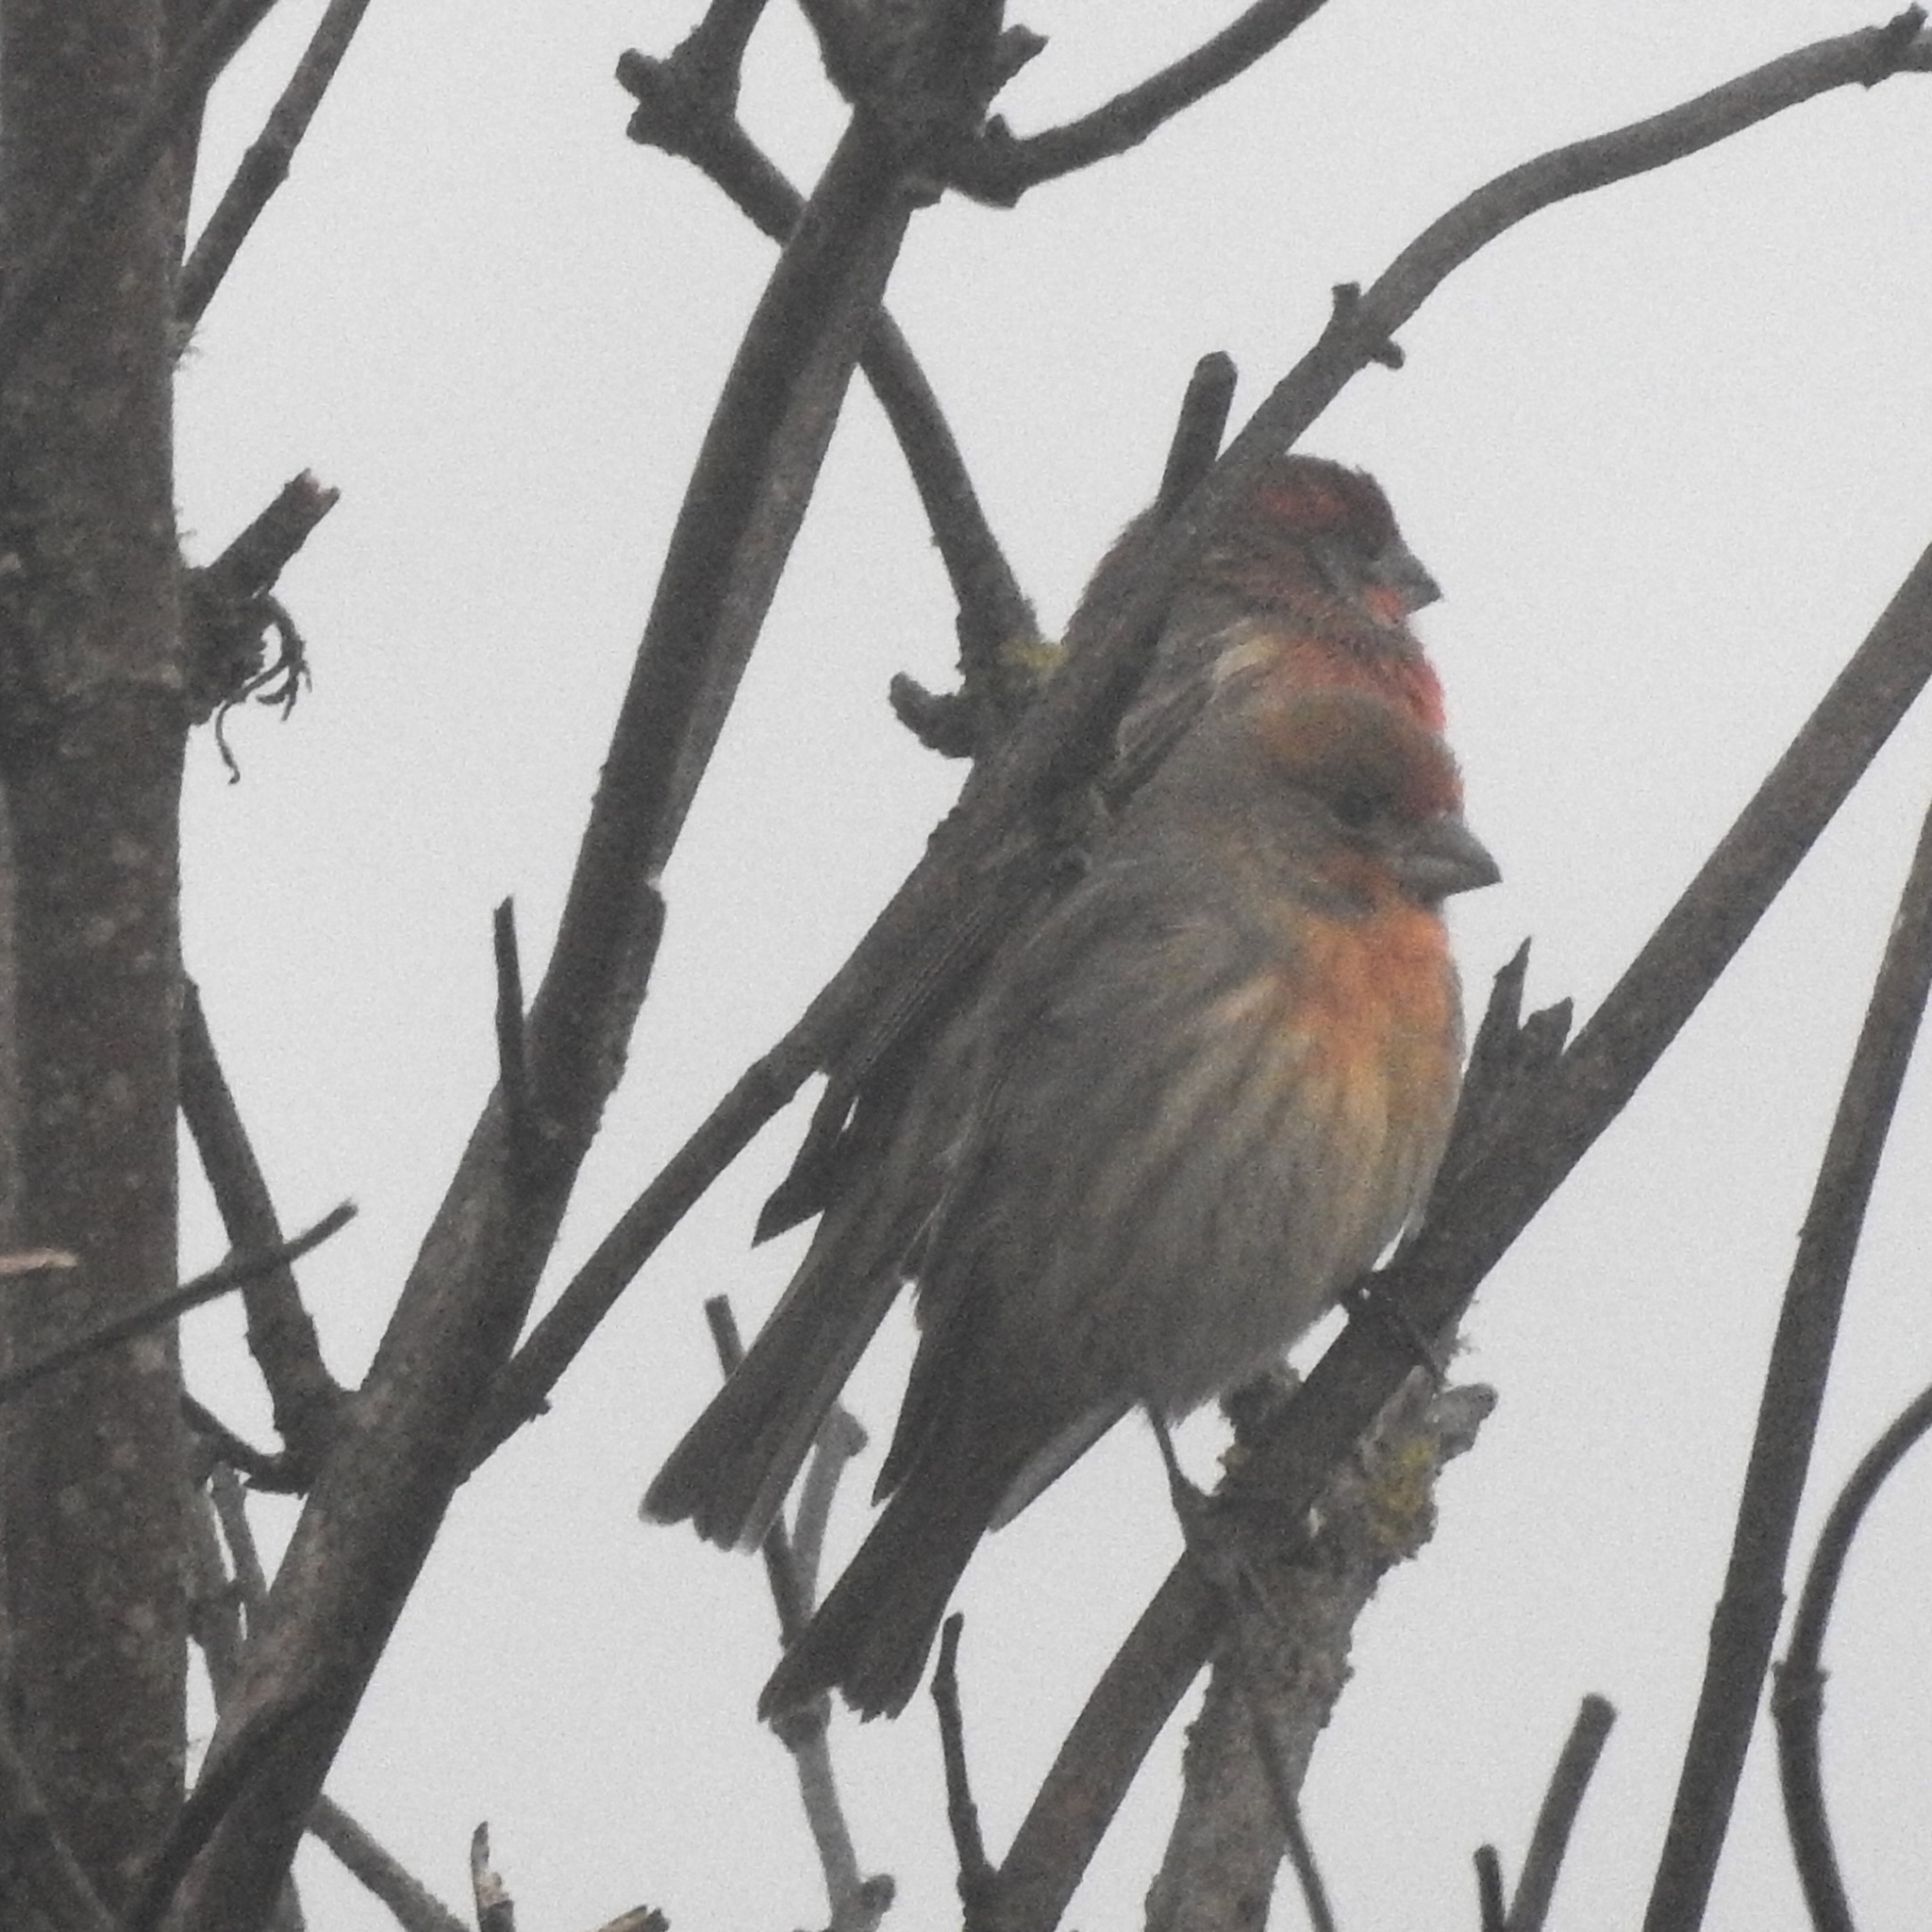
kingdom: Animalia
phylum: Chordata
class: Aves
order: Passeriformes
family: Fringillidae
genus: Haemorhous
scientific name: Haemorhous mexicanus
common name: House finch
